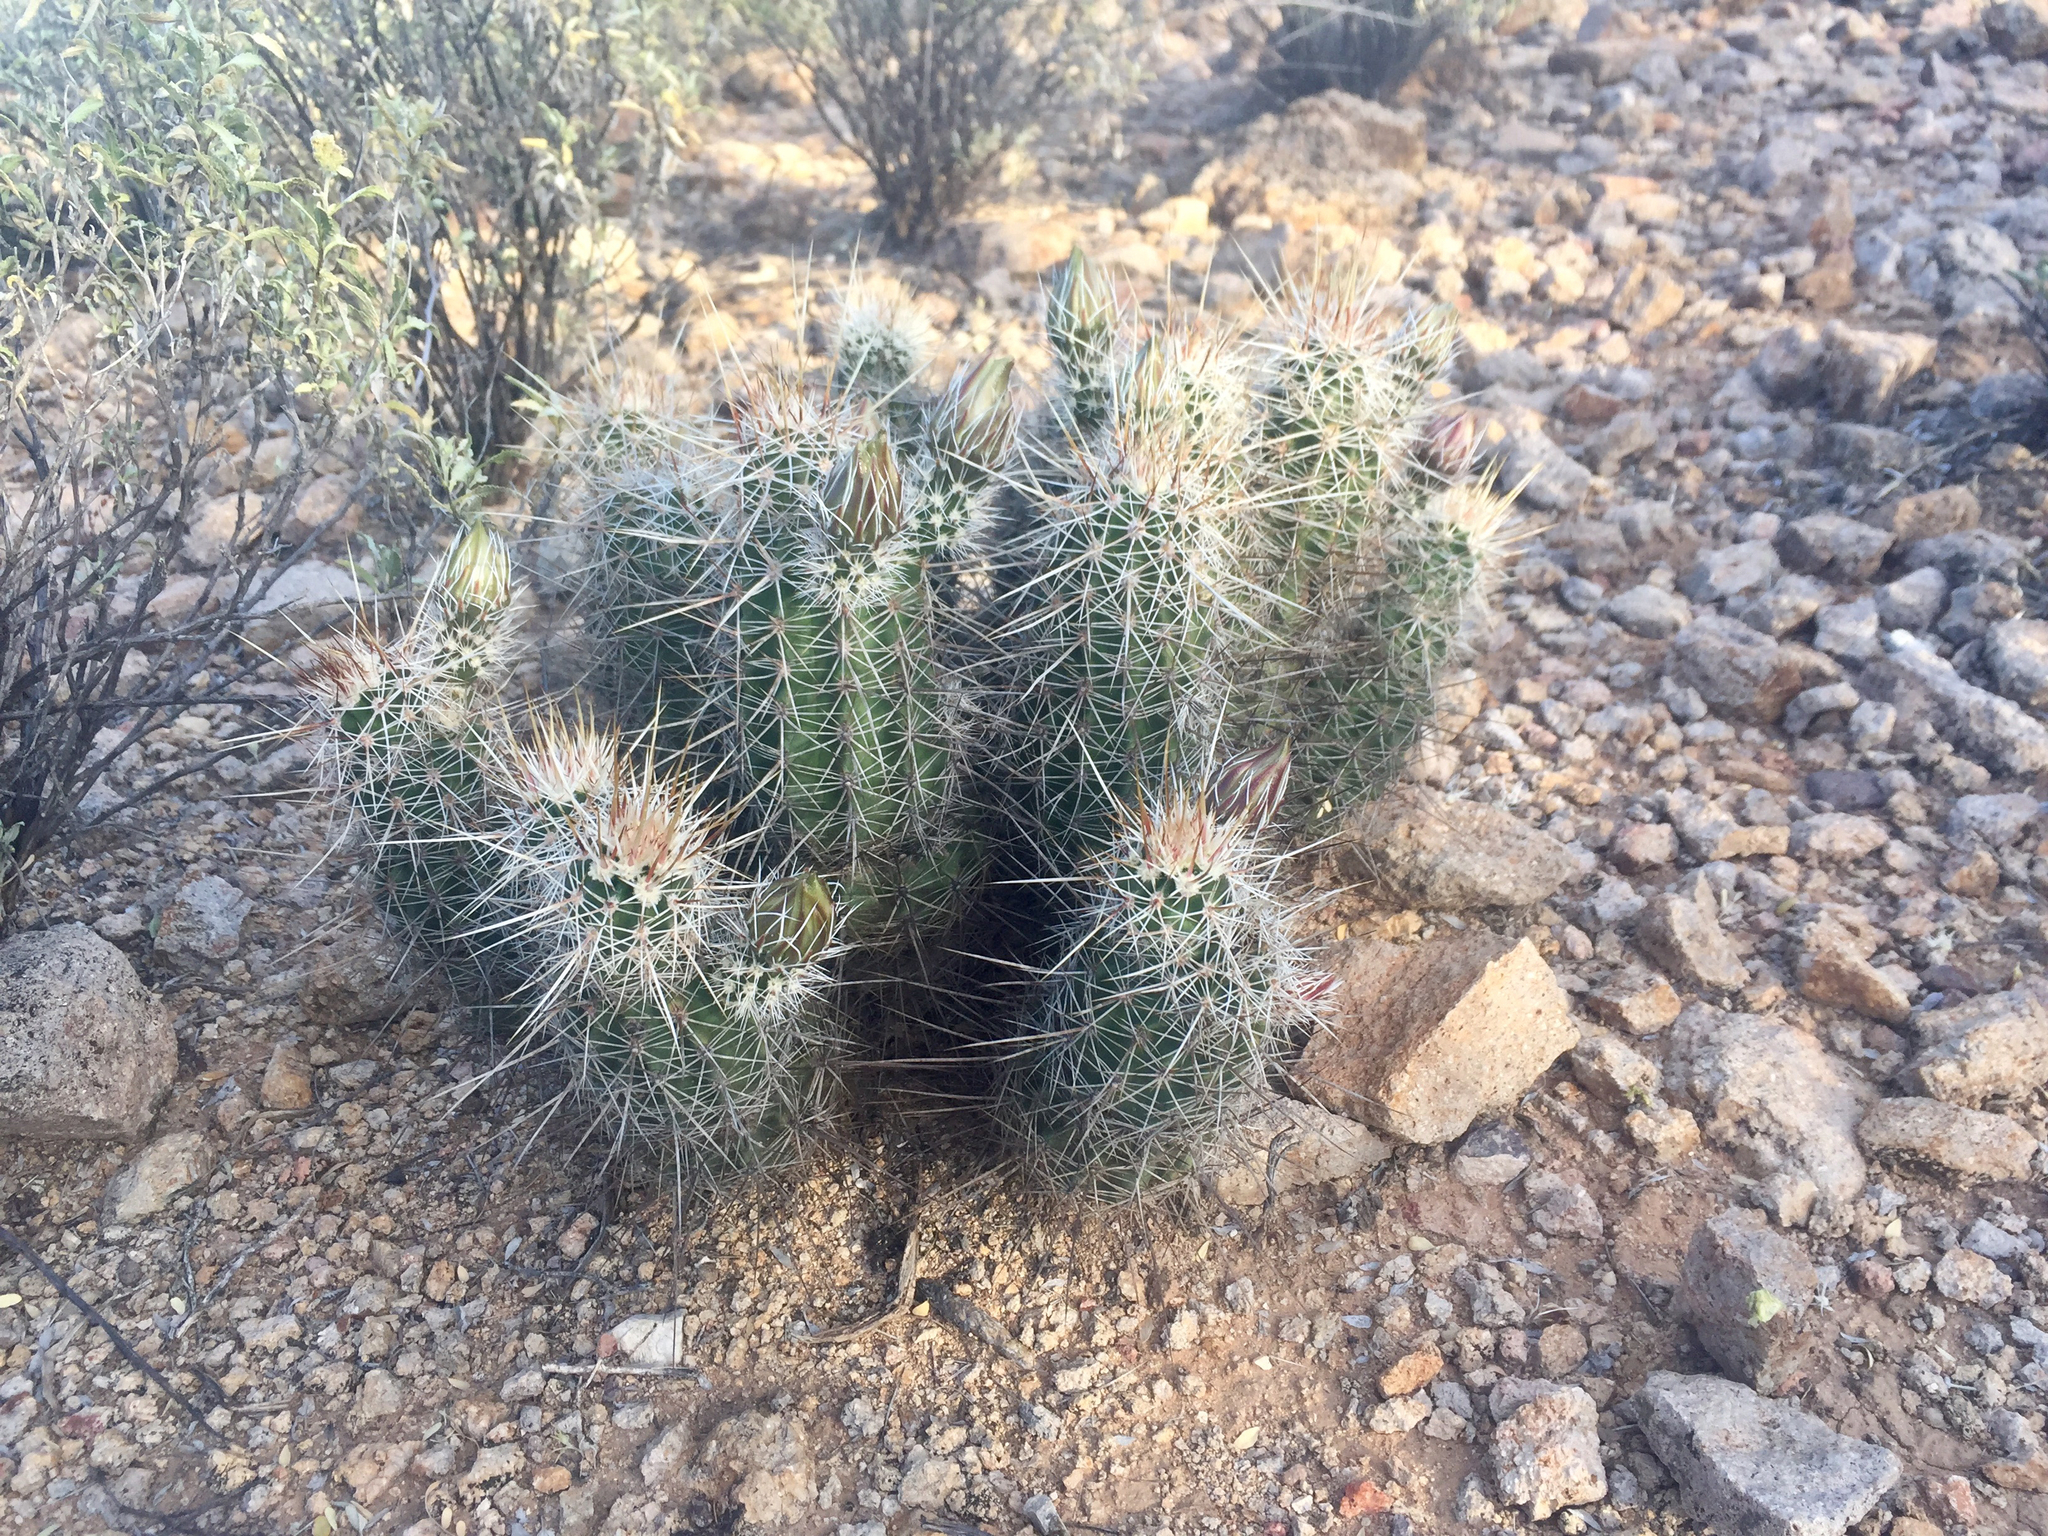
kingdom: Plantae
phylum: Tracheophyta
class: Magnoliopsida
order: Caryophyllales
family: Cactaceae
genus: Echinocereus
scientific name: Echinocereus fasciculatus
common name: Bundle hedgehog
